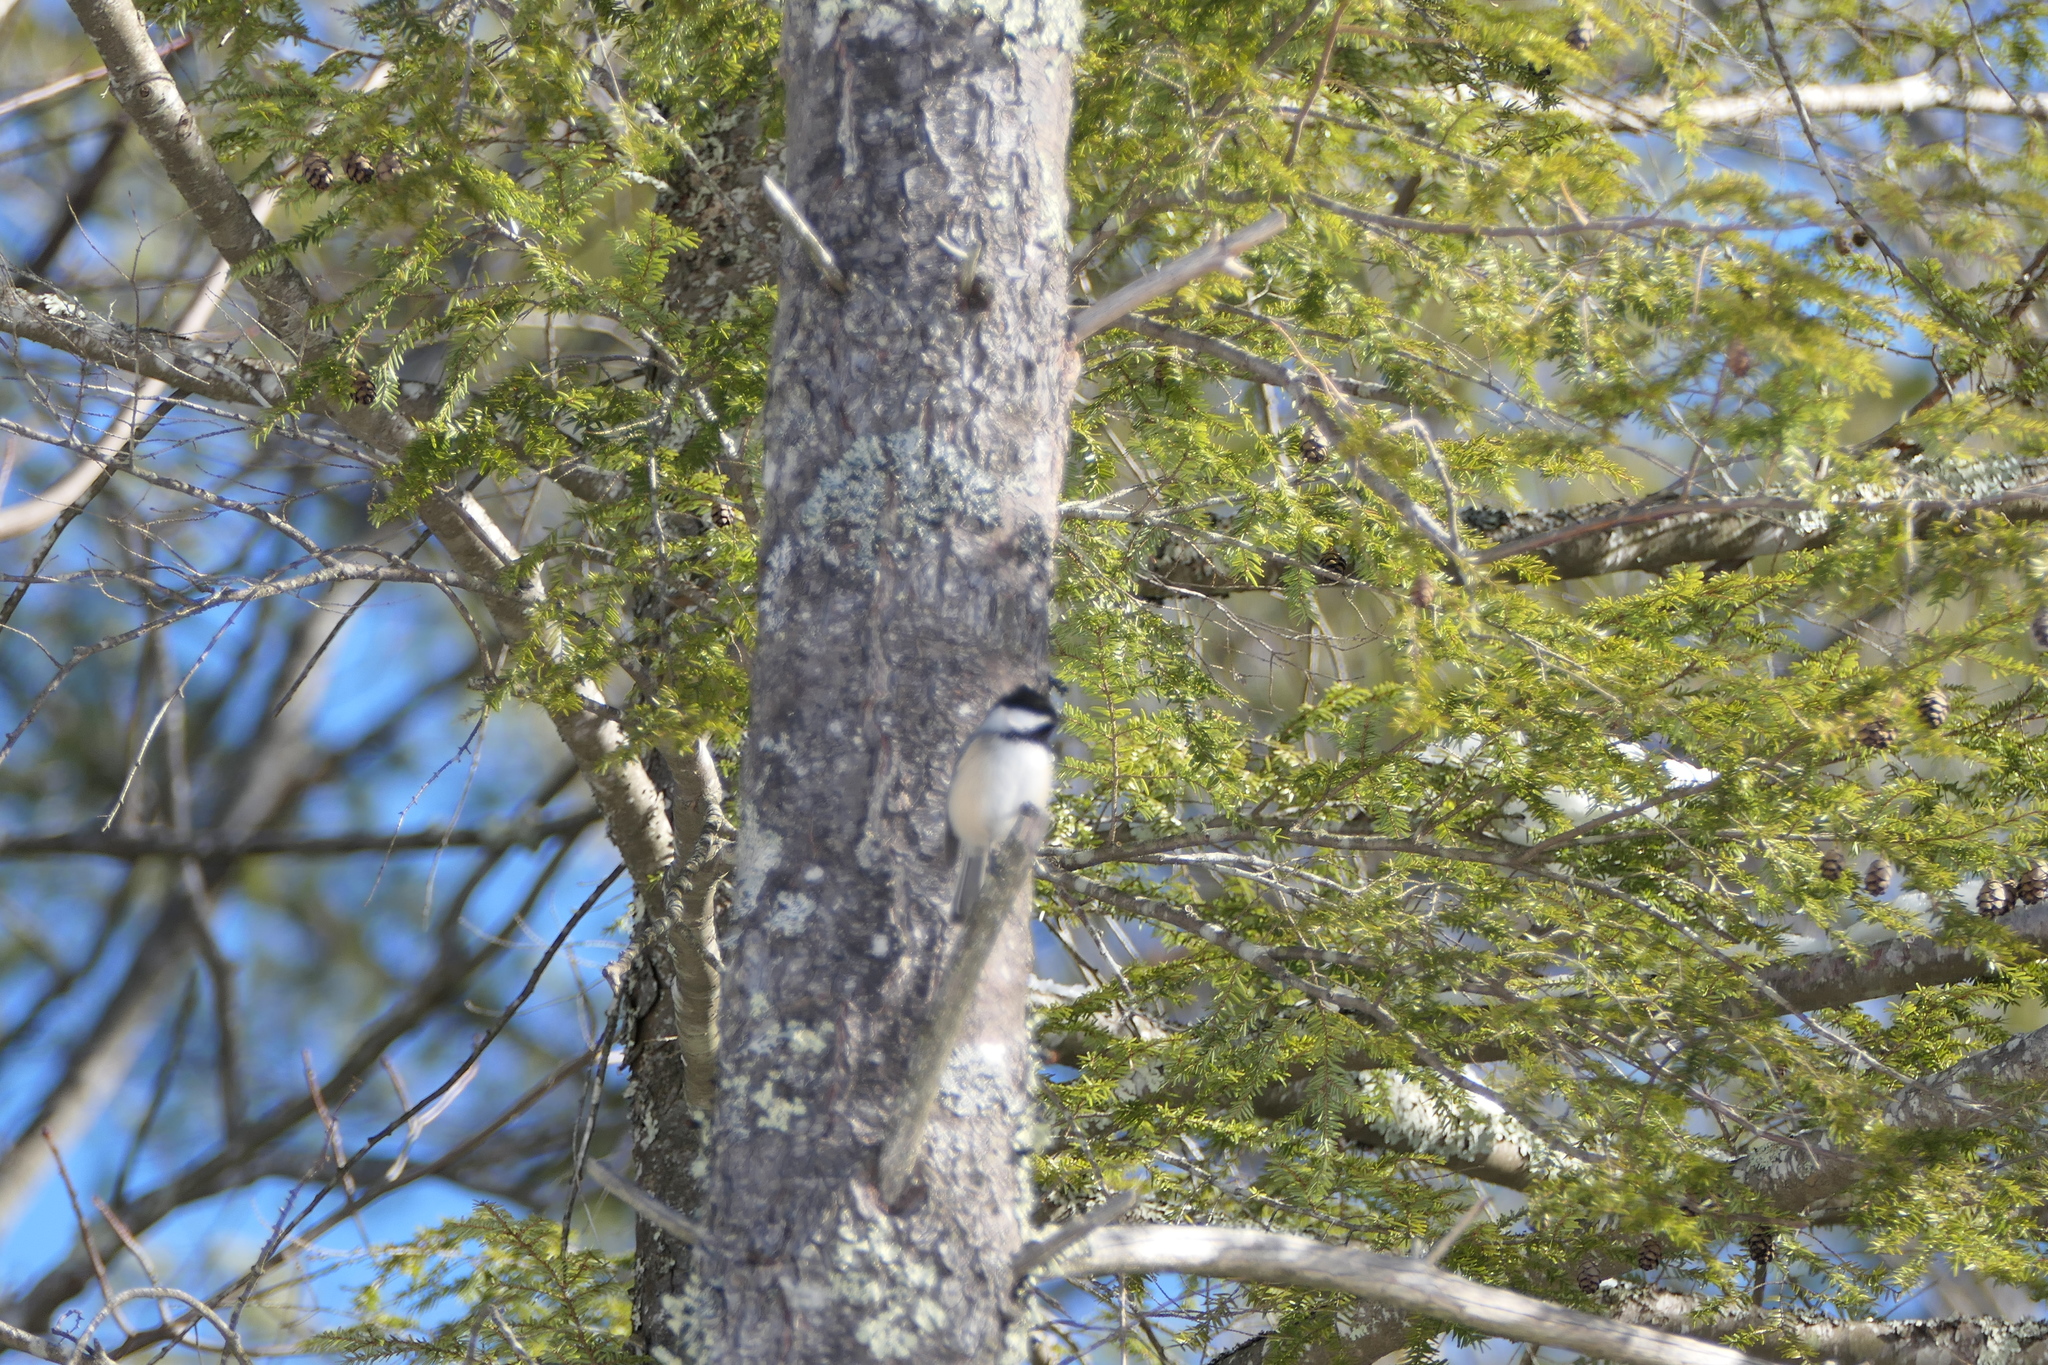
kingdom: Animalia
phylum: Chordata
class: Aves
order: Passeriformes
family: Paridae
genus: Poecile
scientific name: Poecile atricapillus
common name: Black-capped chickadee
